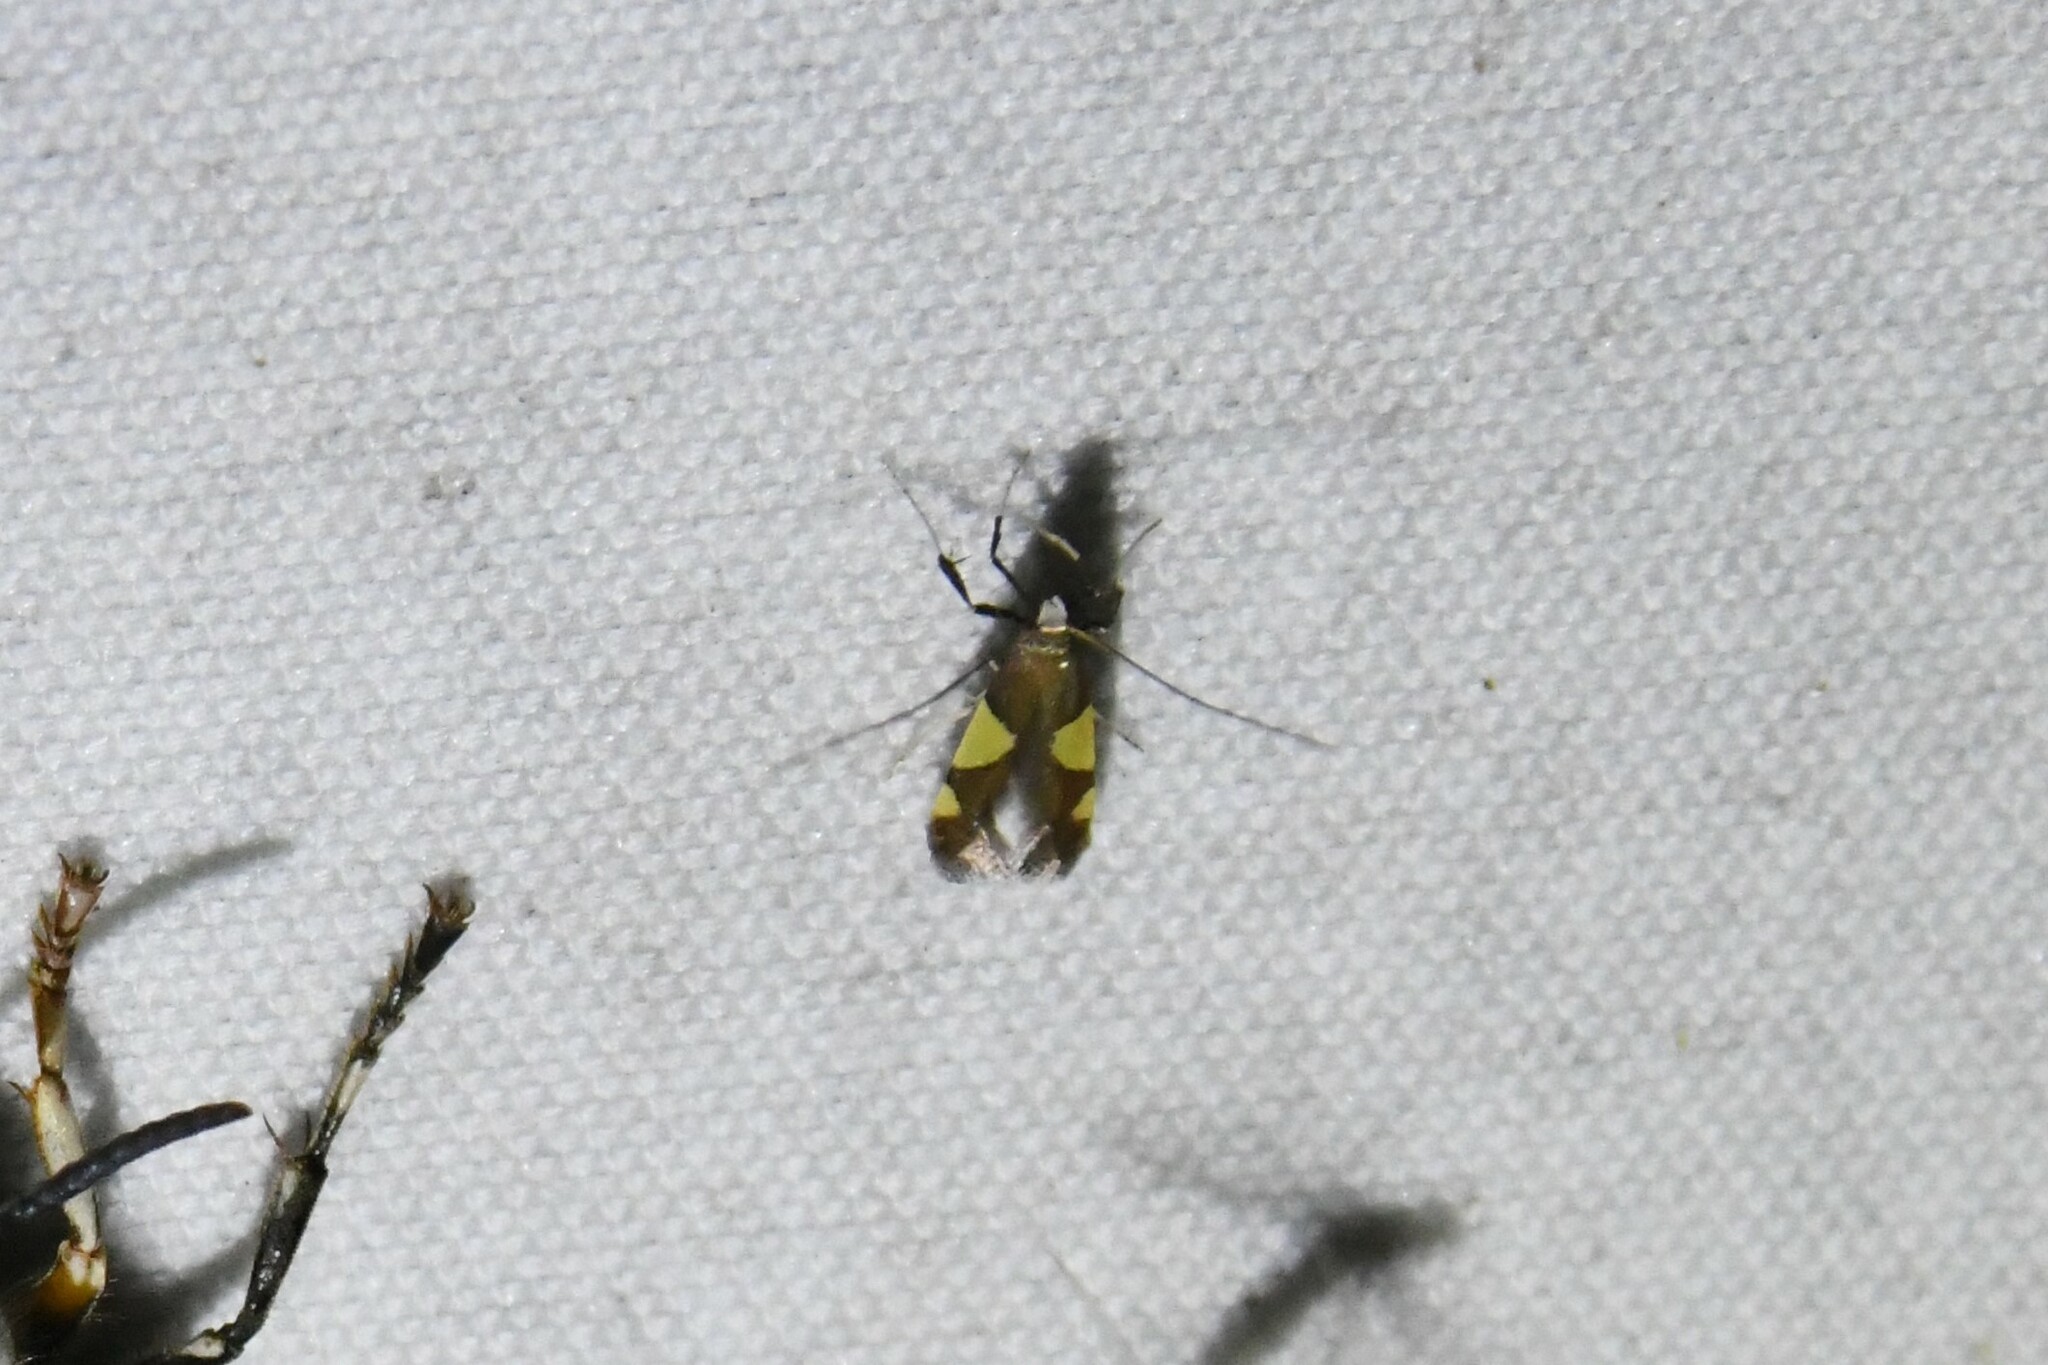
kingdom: Animalia
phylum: Arthropoda
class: Insecta
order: Lepidoptera
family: Gracillariidae
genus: Caloptilia
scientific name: Caloptilia bimaculatella
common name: Maple caloptilia moth
